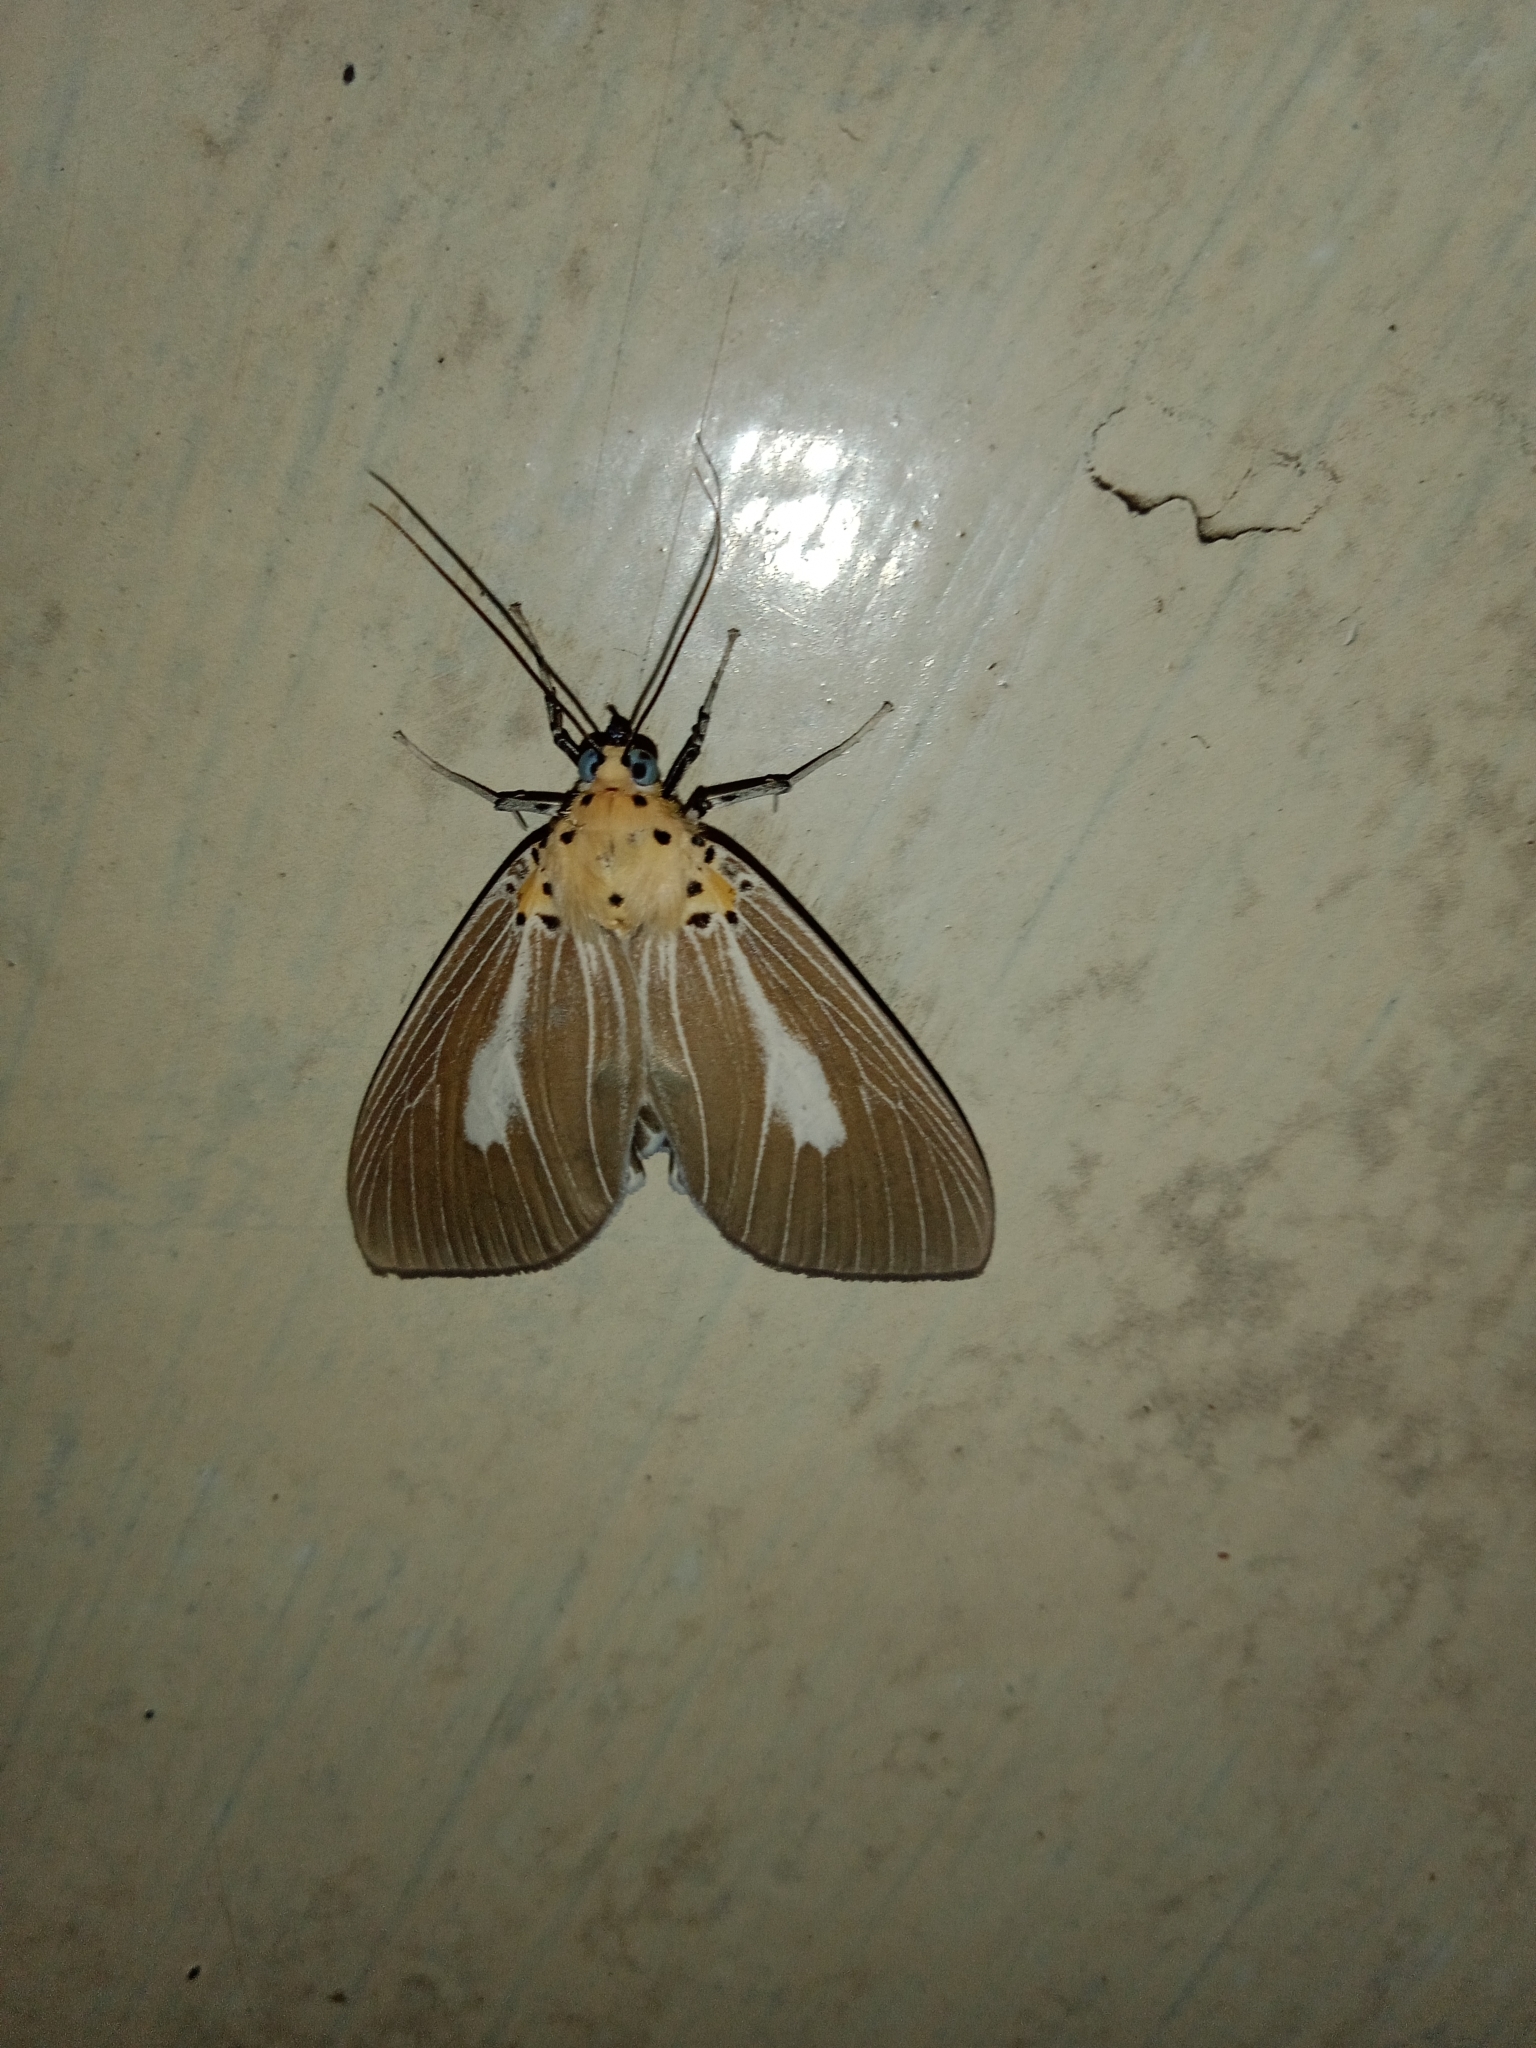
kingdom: Animalia
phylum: Arthropoda
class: Insecta
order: Lepidoptera
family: Erebidae
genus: Asota
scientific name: Asota heliconia
